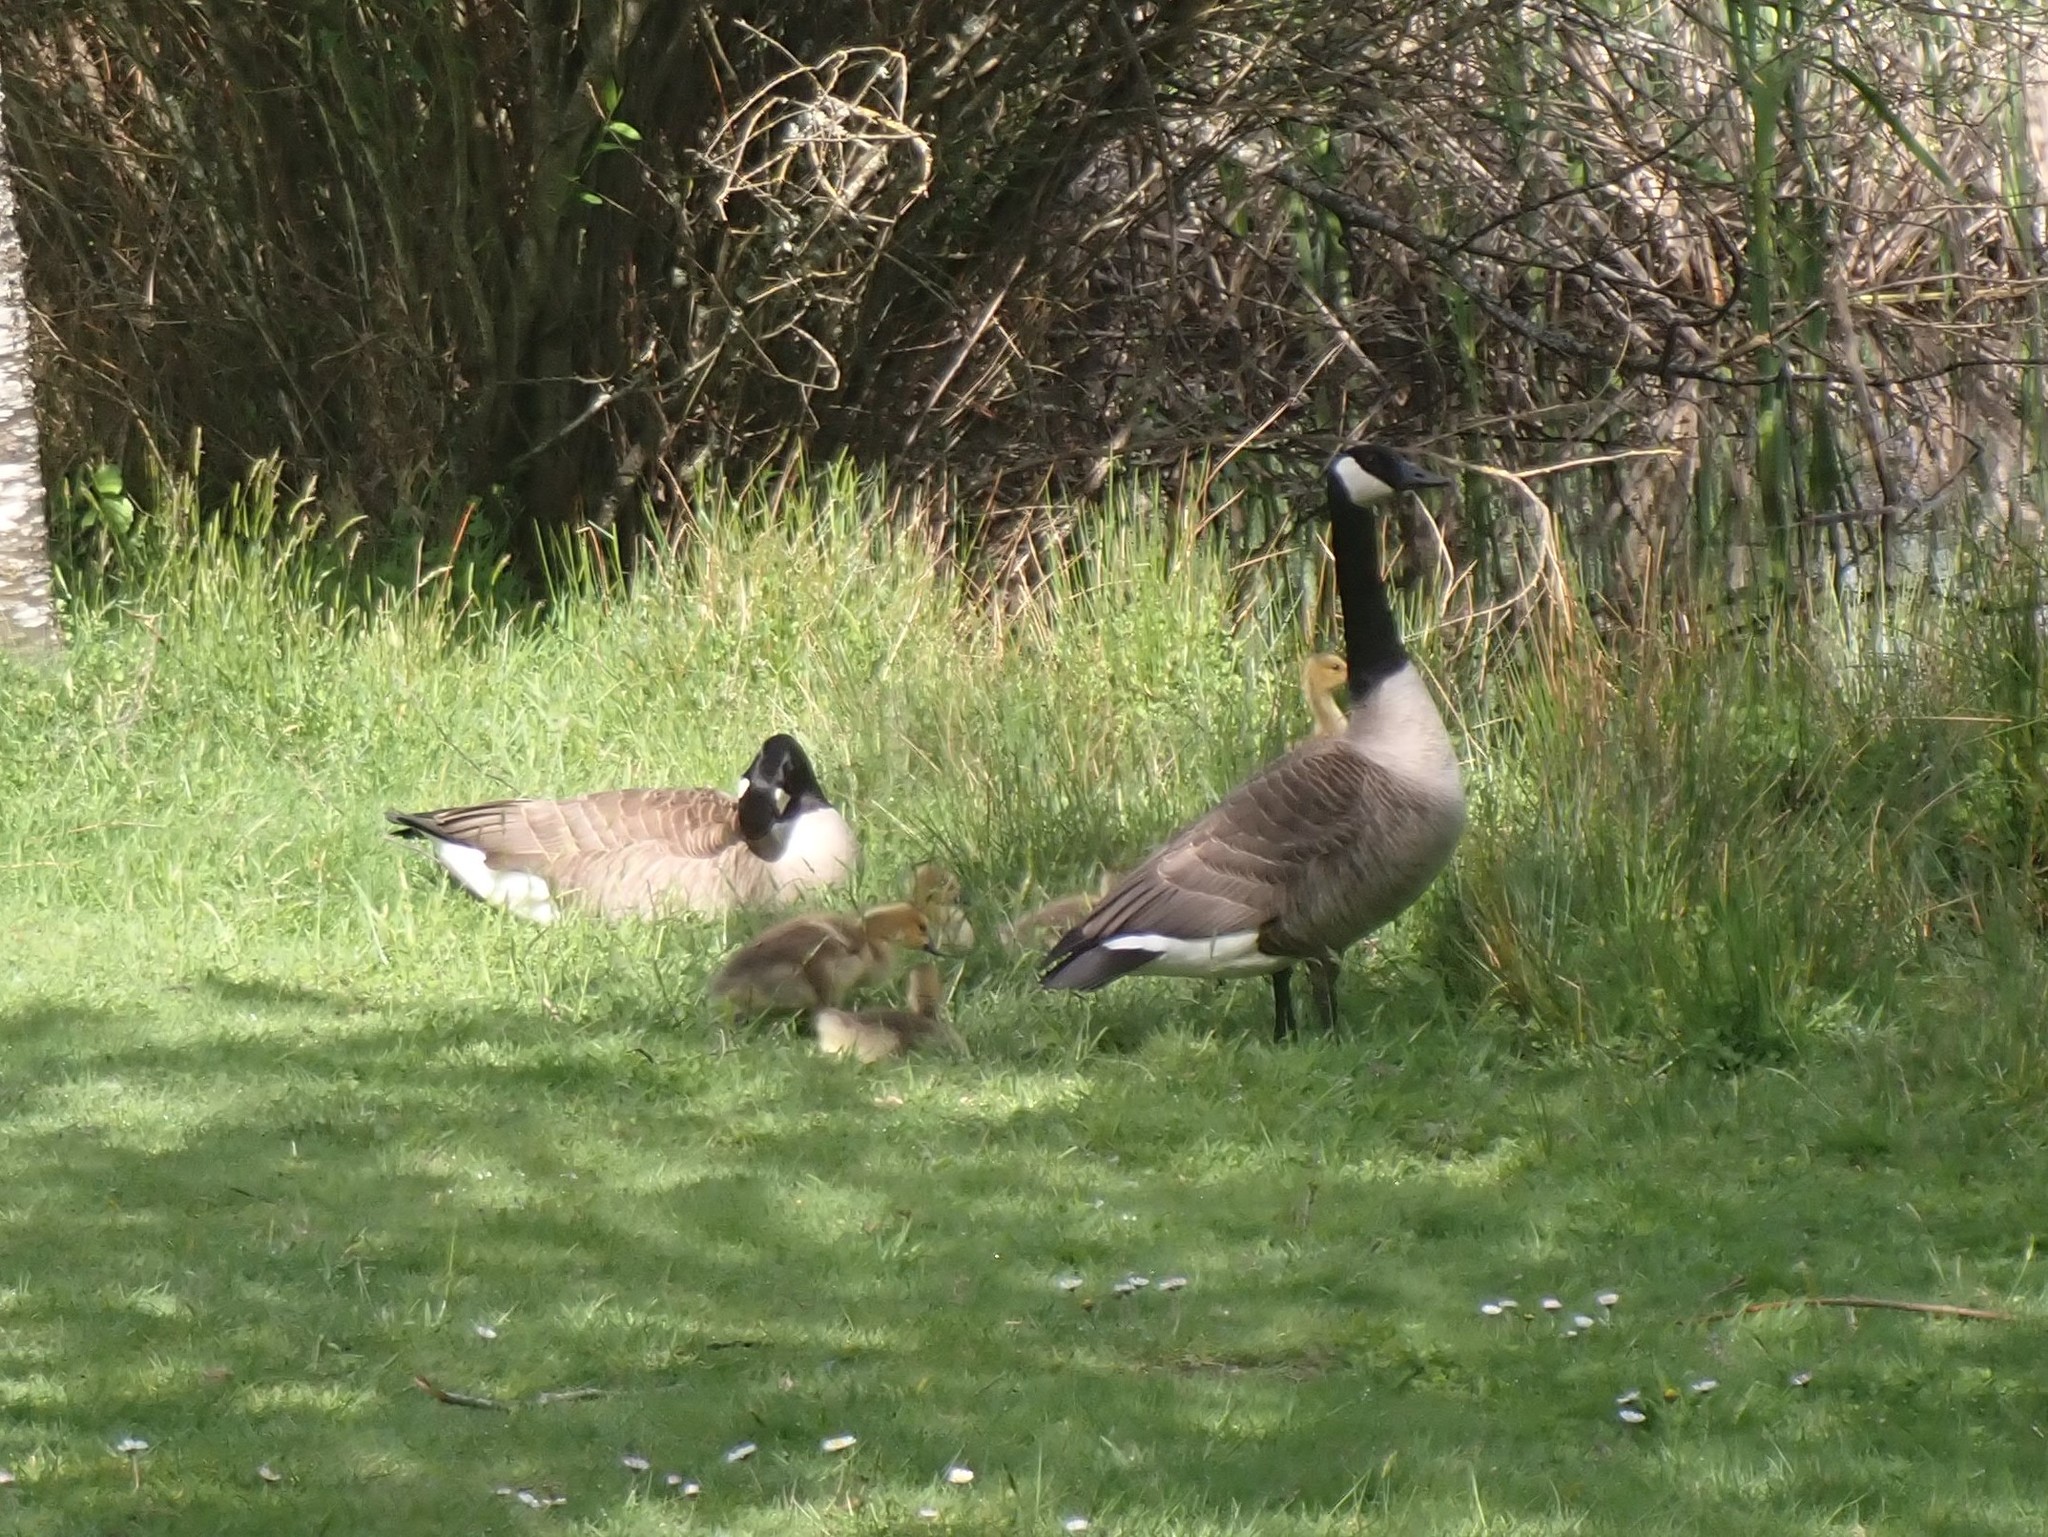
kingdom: Animalia
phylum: Chordata
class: Aves
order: Anseriformes
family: Anatidae
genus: Branta
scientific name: Branta canadensis
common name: Canada goose
